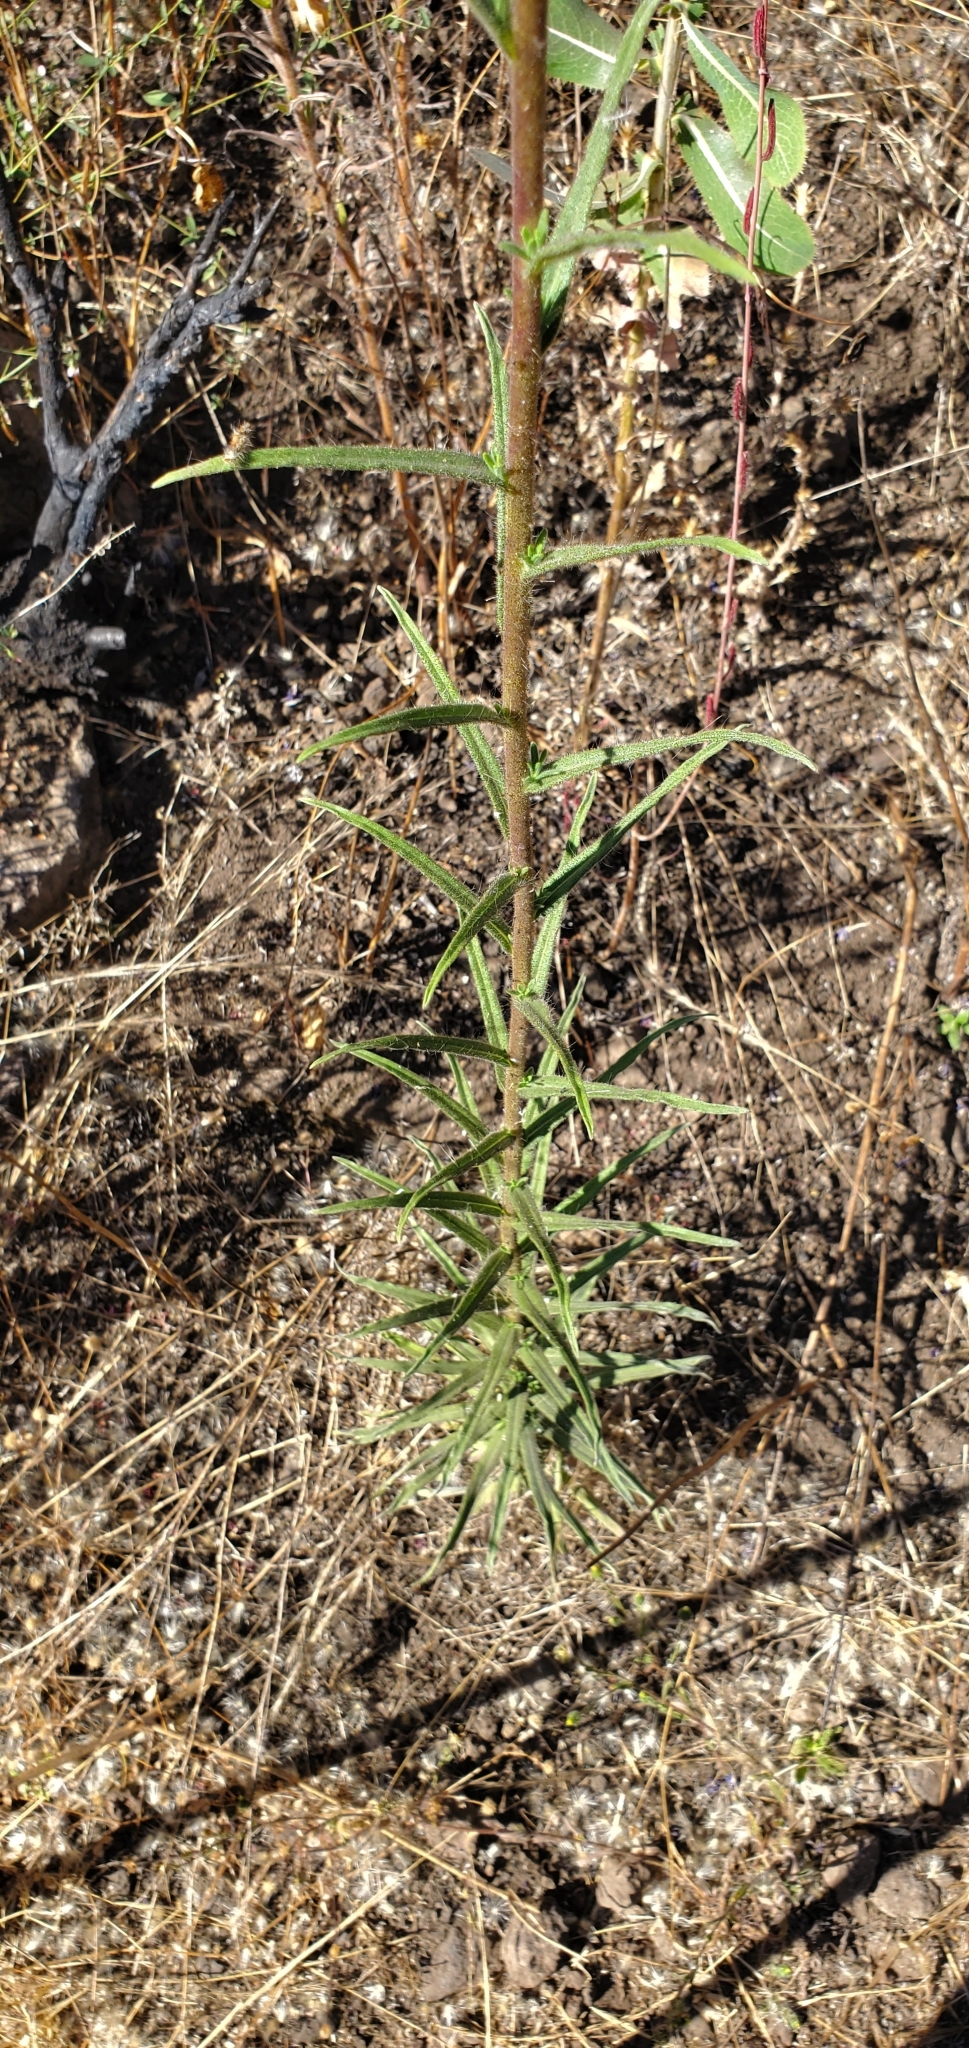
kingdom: Plantae
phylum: Tracheophyta
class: Magnoliopsida
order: Asterales
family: Asteraceae
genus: Madia
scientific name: Madia elegans
